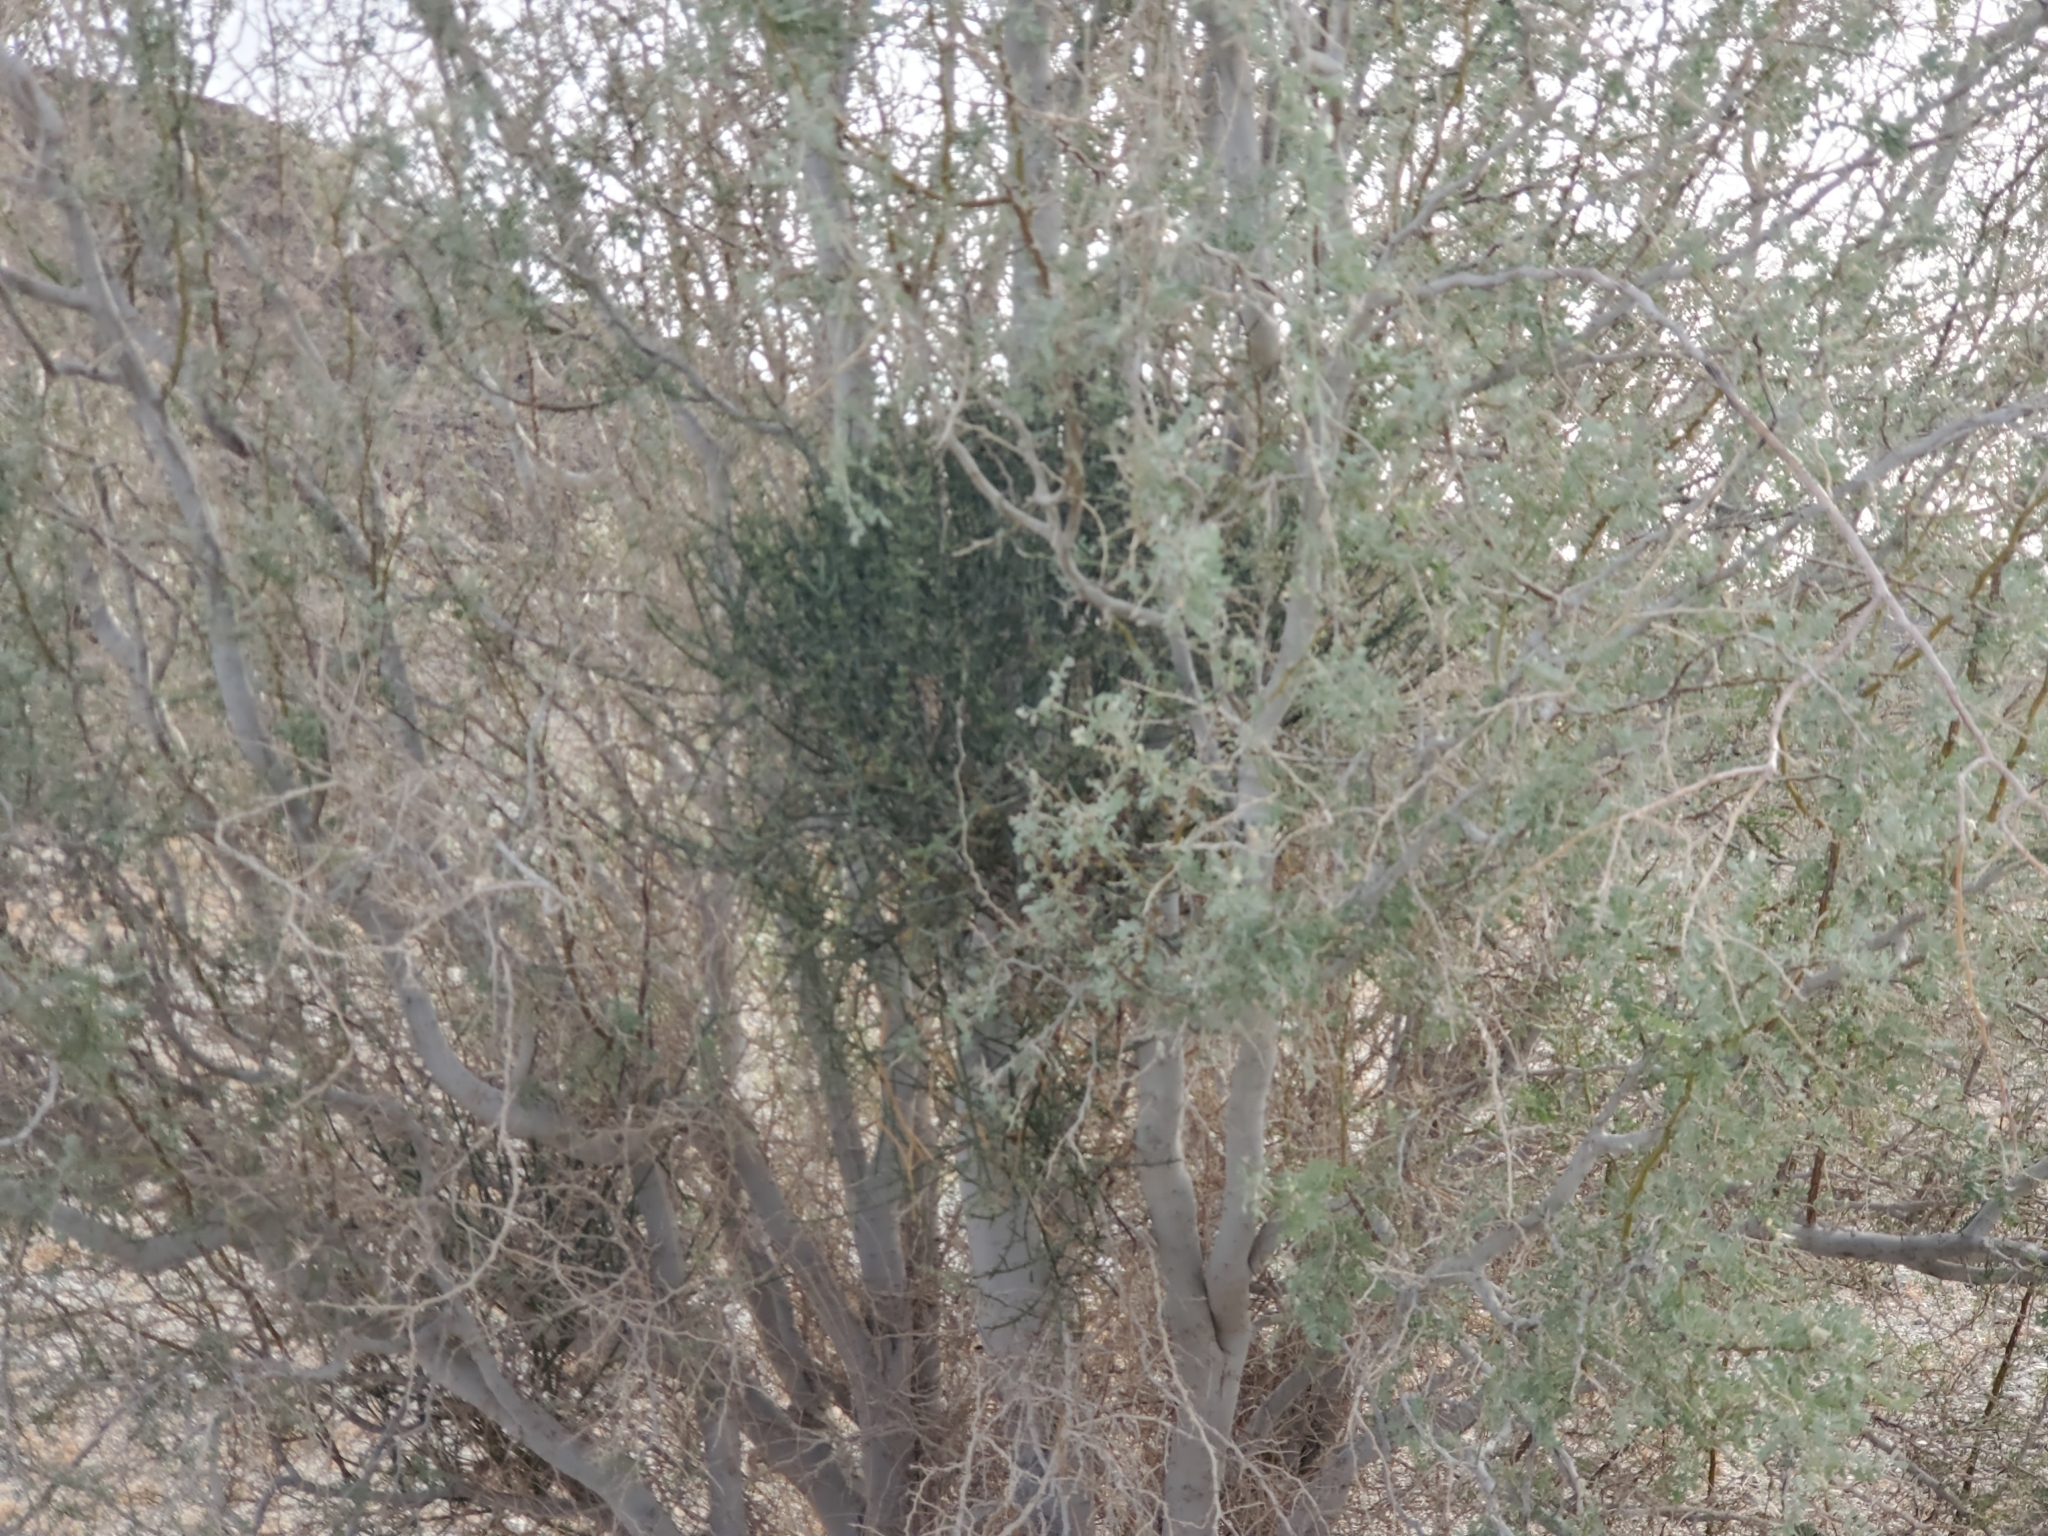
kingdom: Plantae
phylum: Tracheophyta
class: Magnoliopsida
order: Santalales
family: Viscaceae
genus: Phoradendron
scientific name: Phoradendron californicum
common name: Acacia mistletoe
